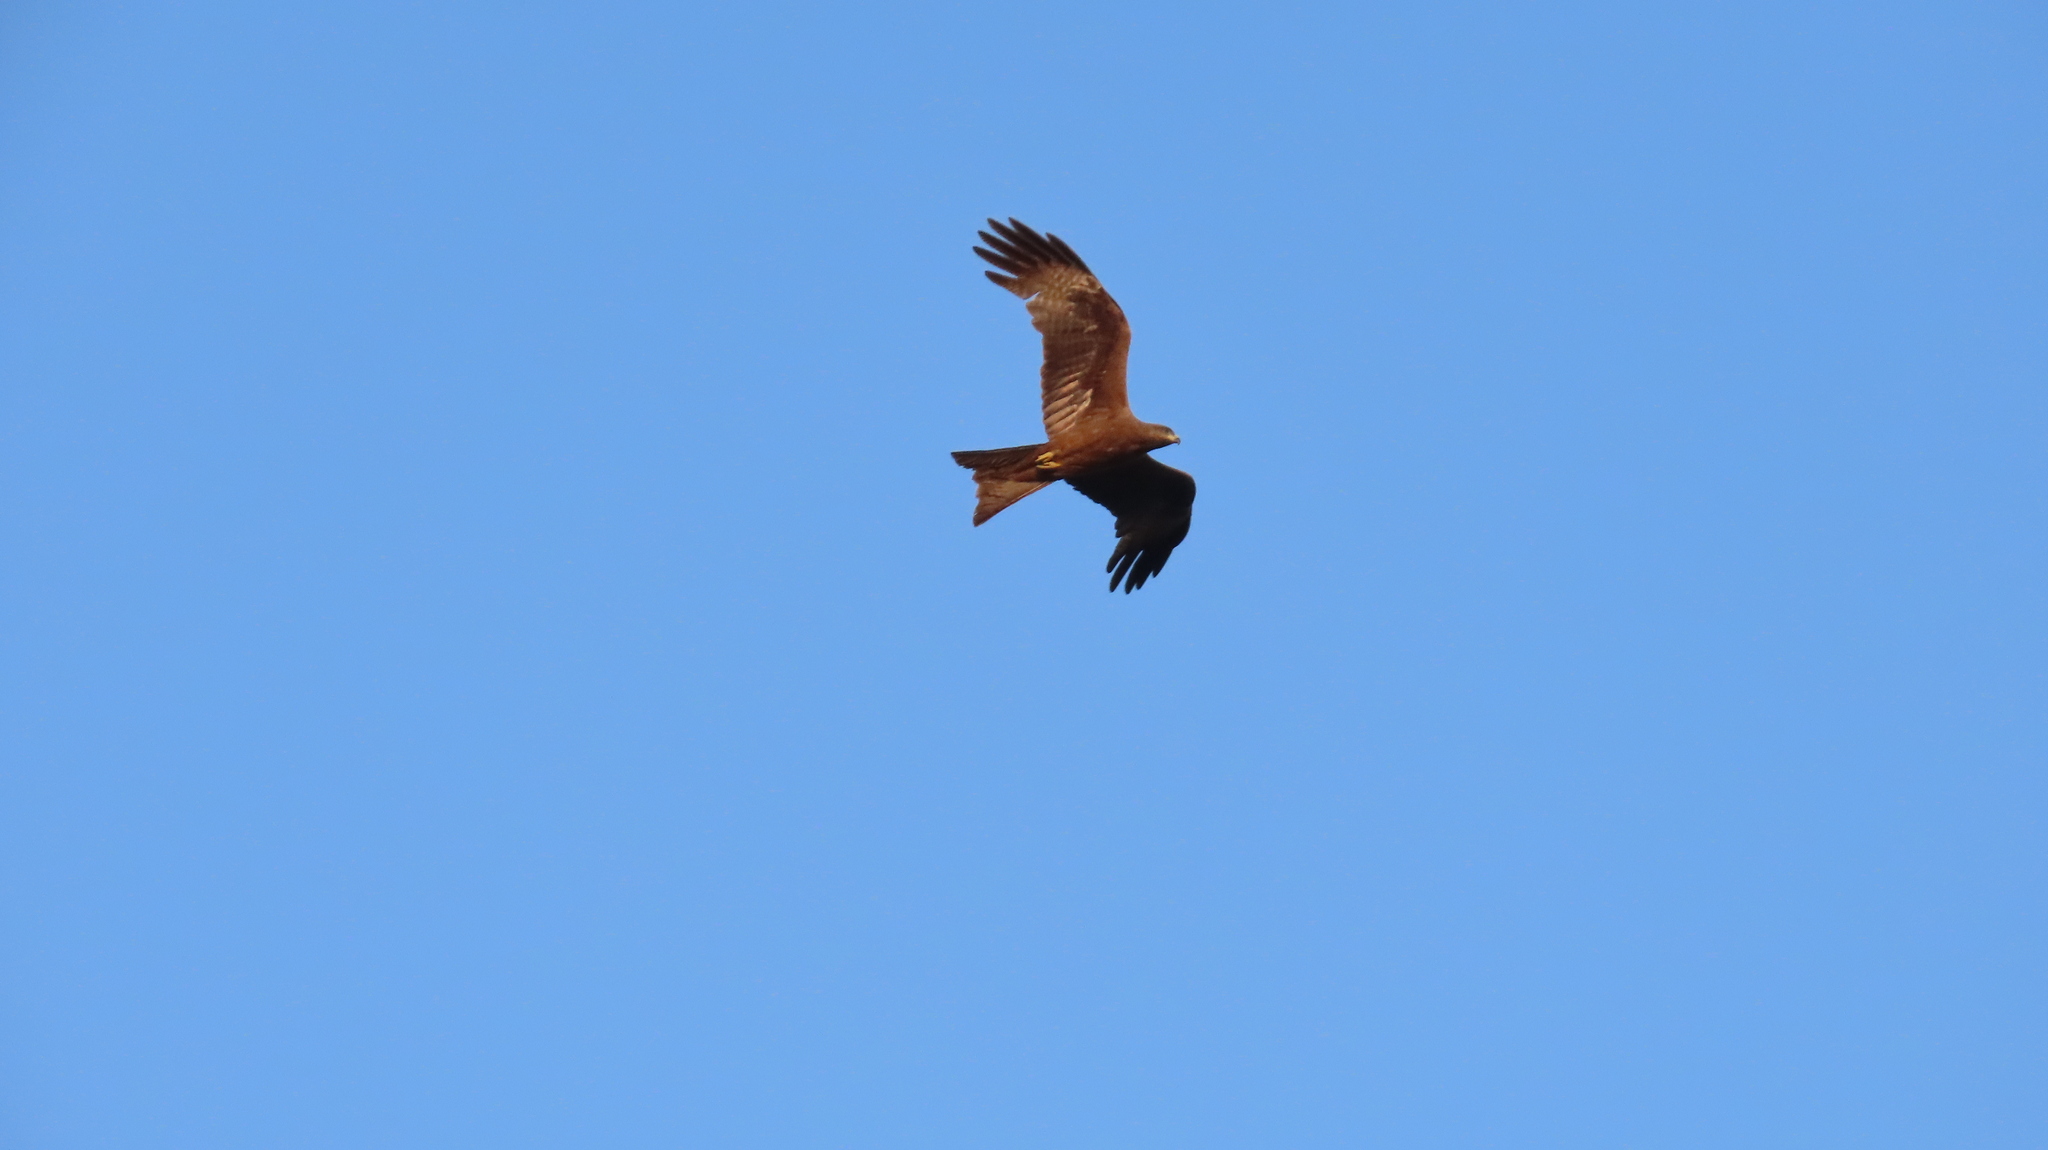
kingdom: Animalia
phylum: Chordata
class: Aves
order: Accipitriformes
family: Accipitridae
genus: Milvus
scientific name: Milvus migrans
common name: Black kite
